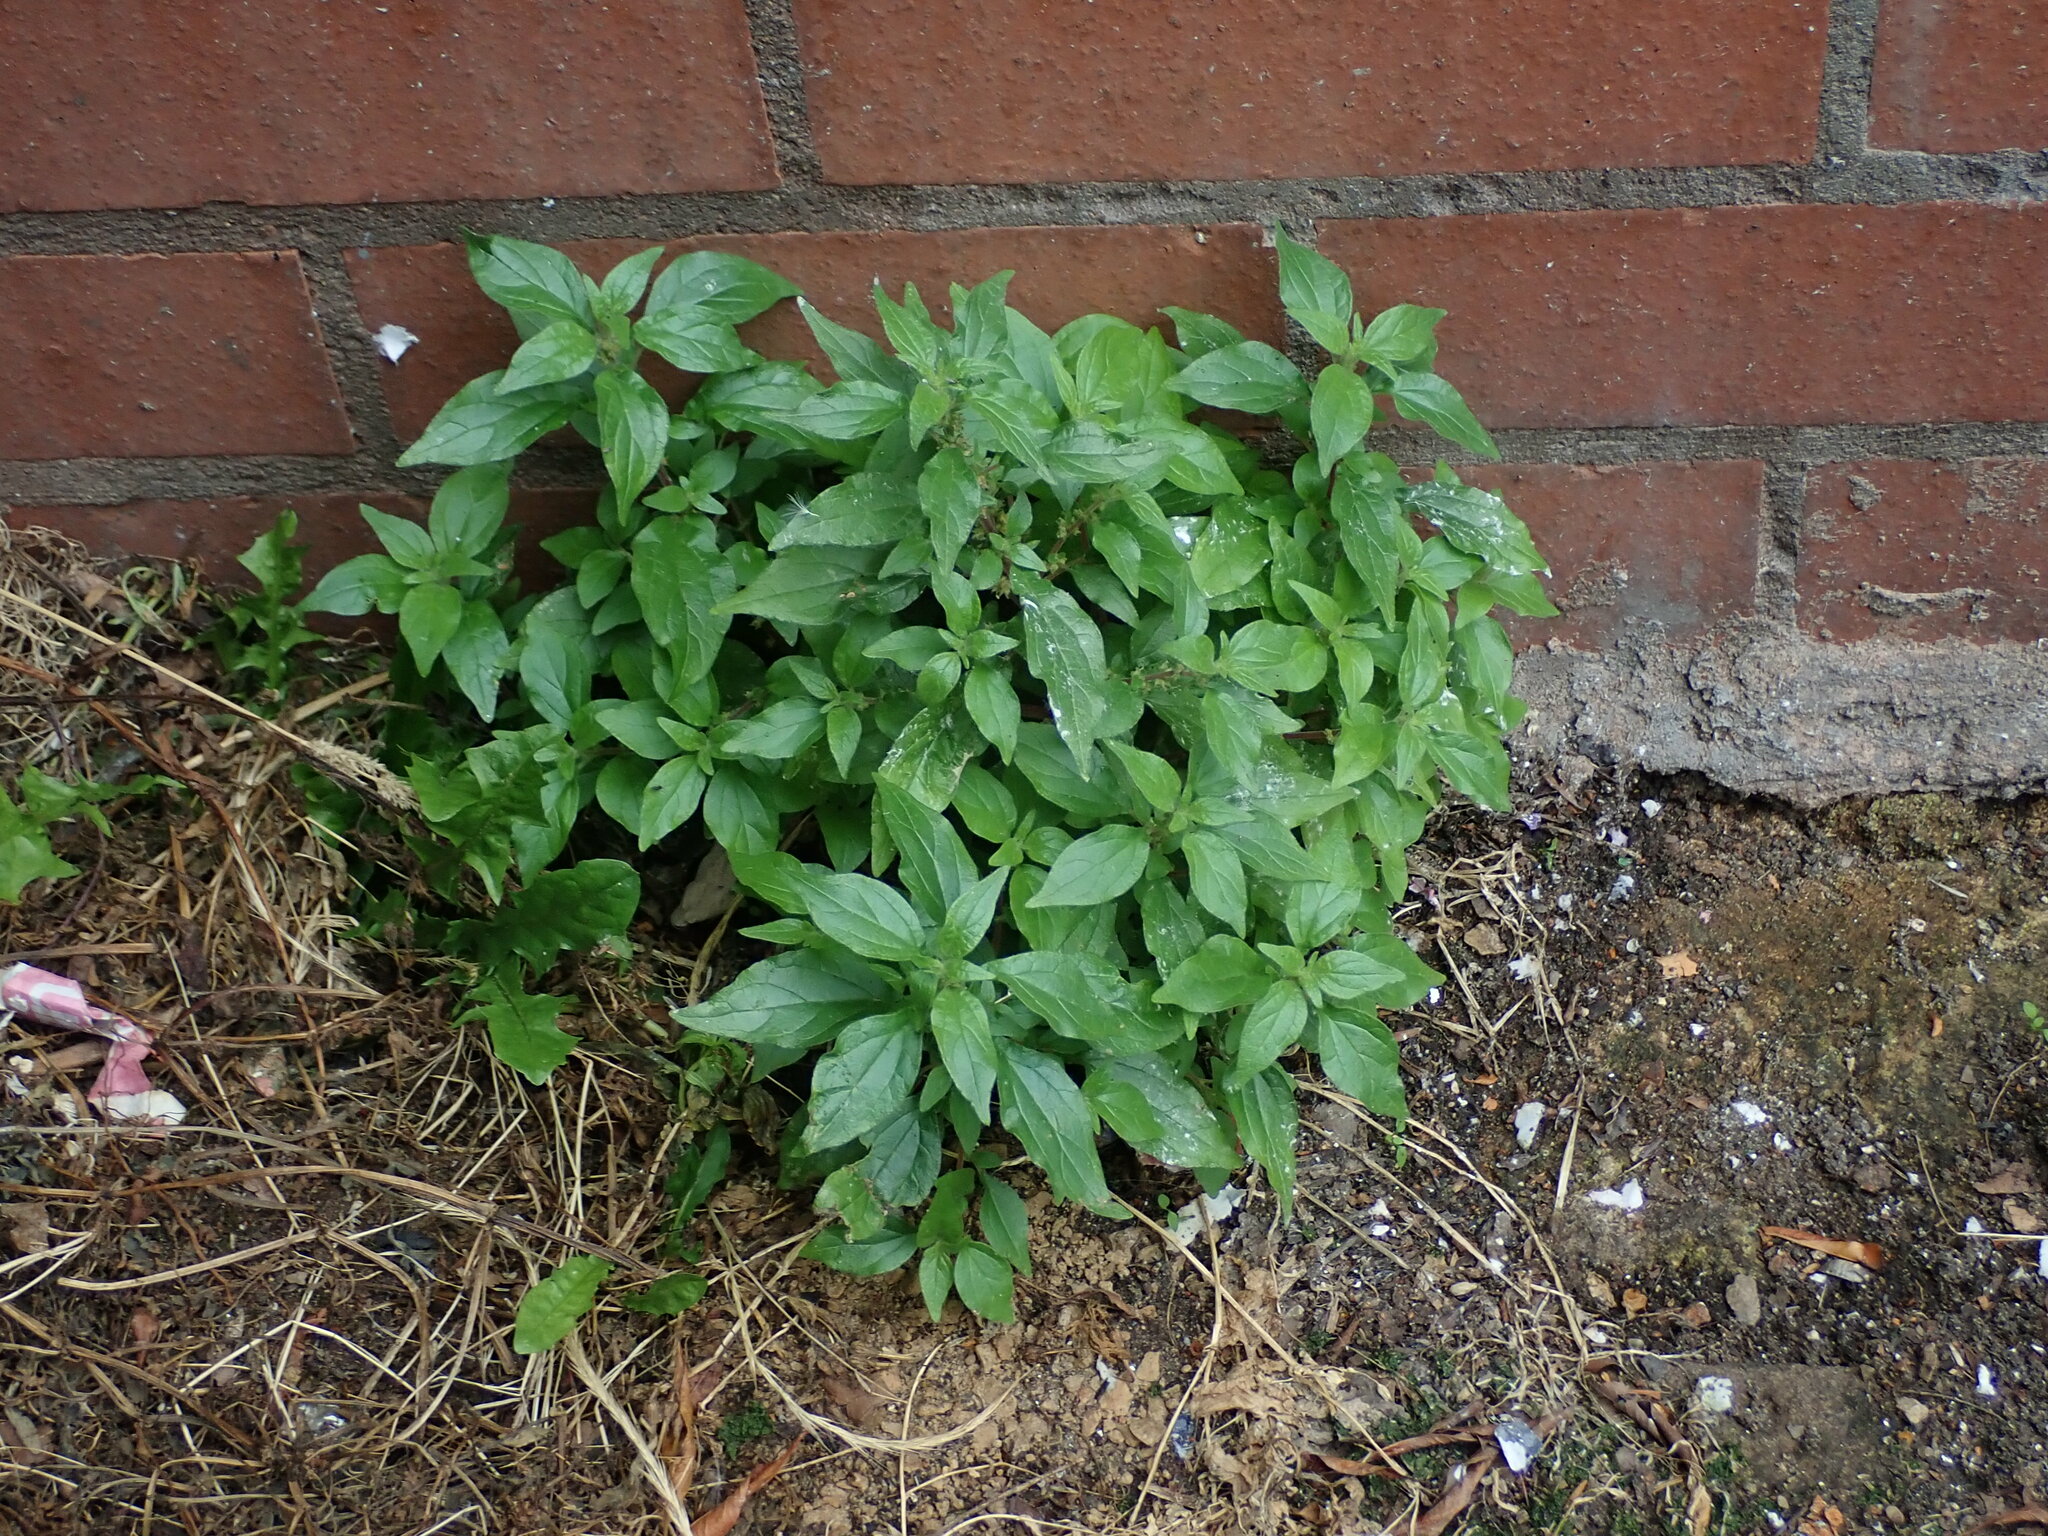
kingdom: Plantae
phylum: Tracheophyta
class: Magnoliopsida
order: Rosales
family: Urticaceae
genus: Parietaria
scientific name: Parietaria judaica
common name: Pellitory-of-the-wall
